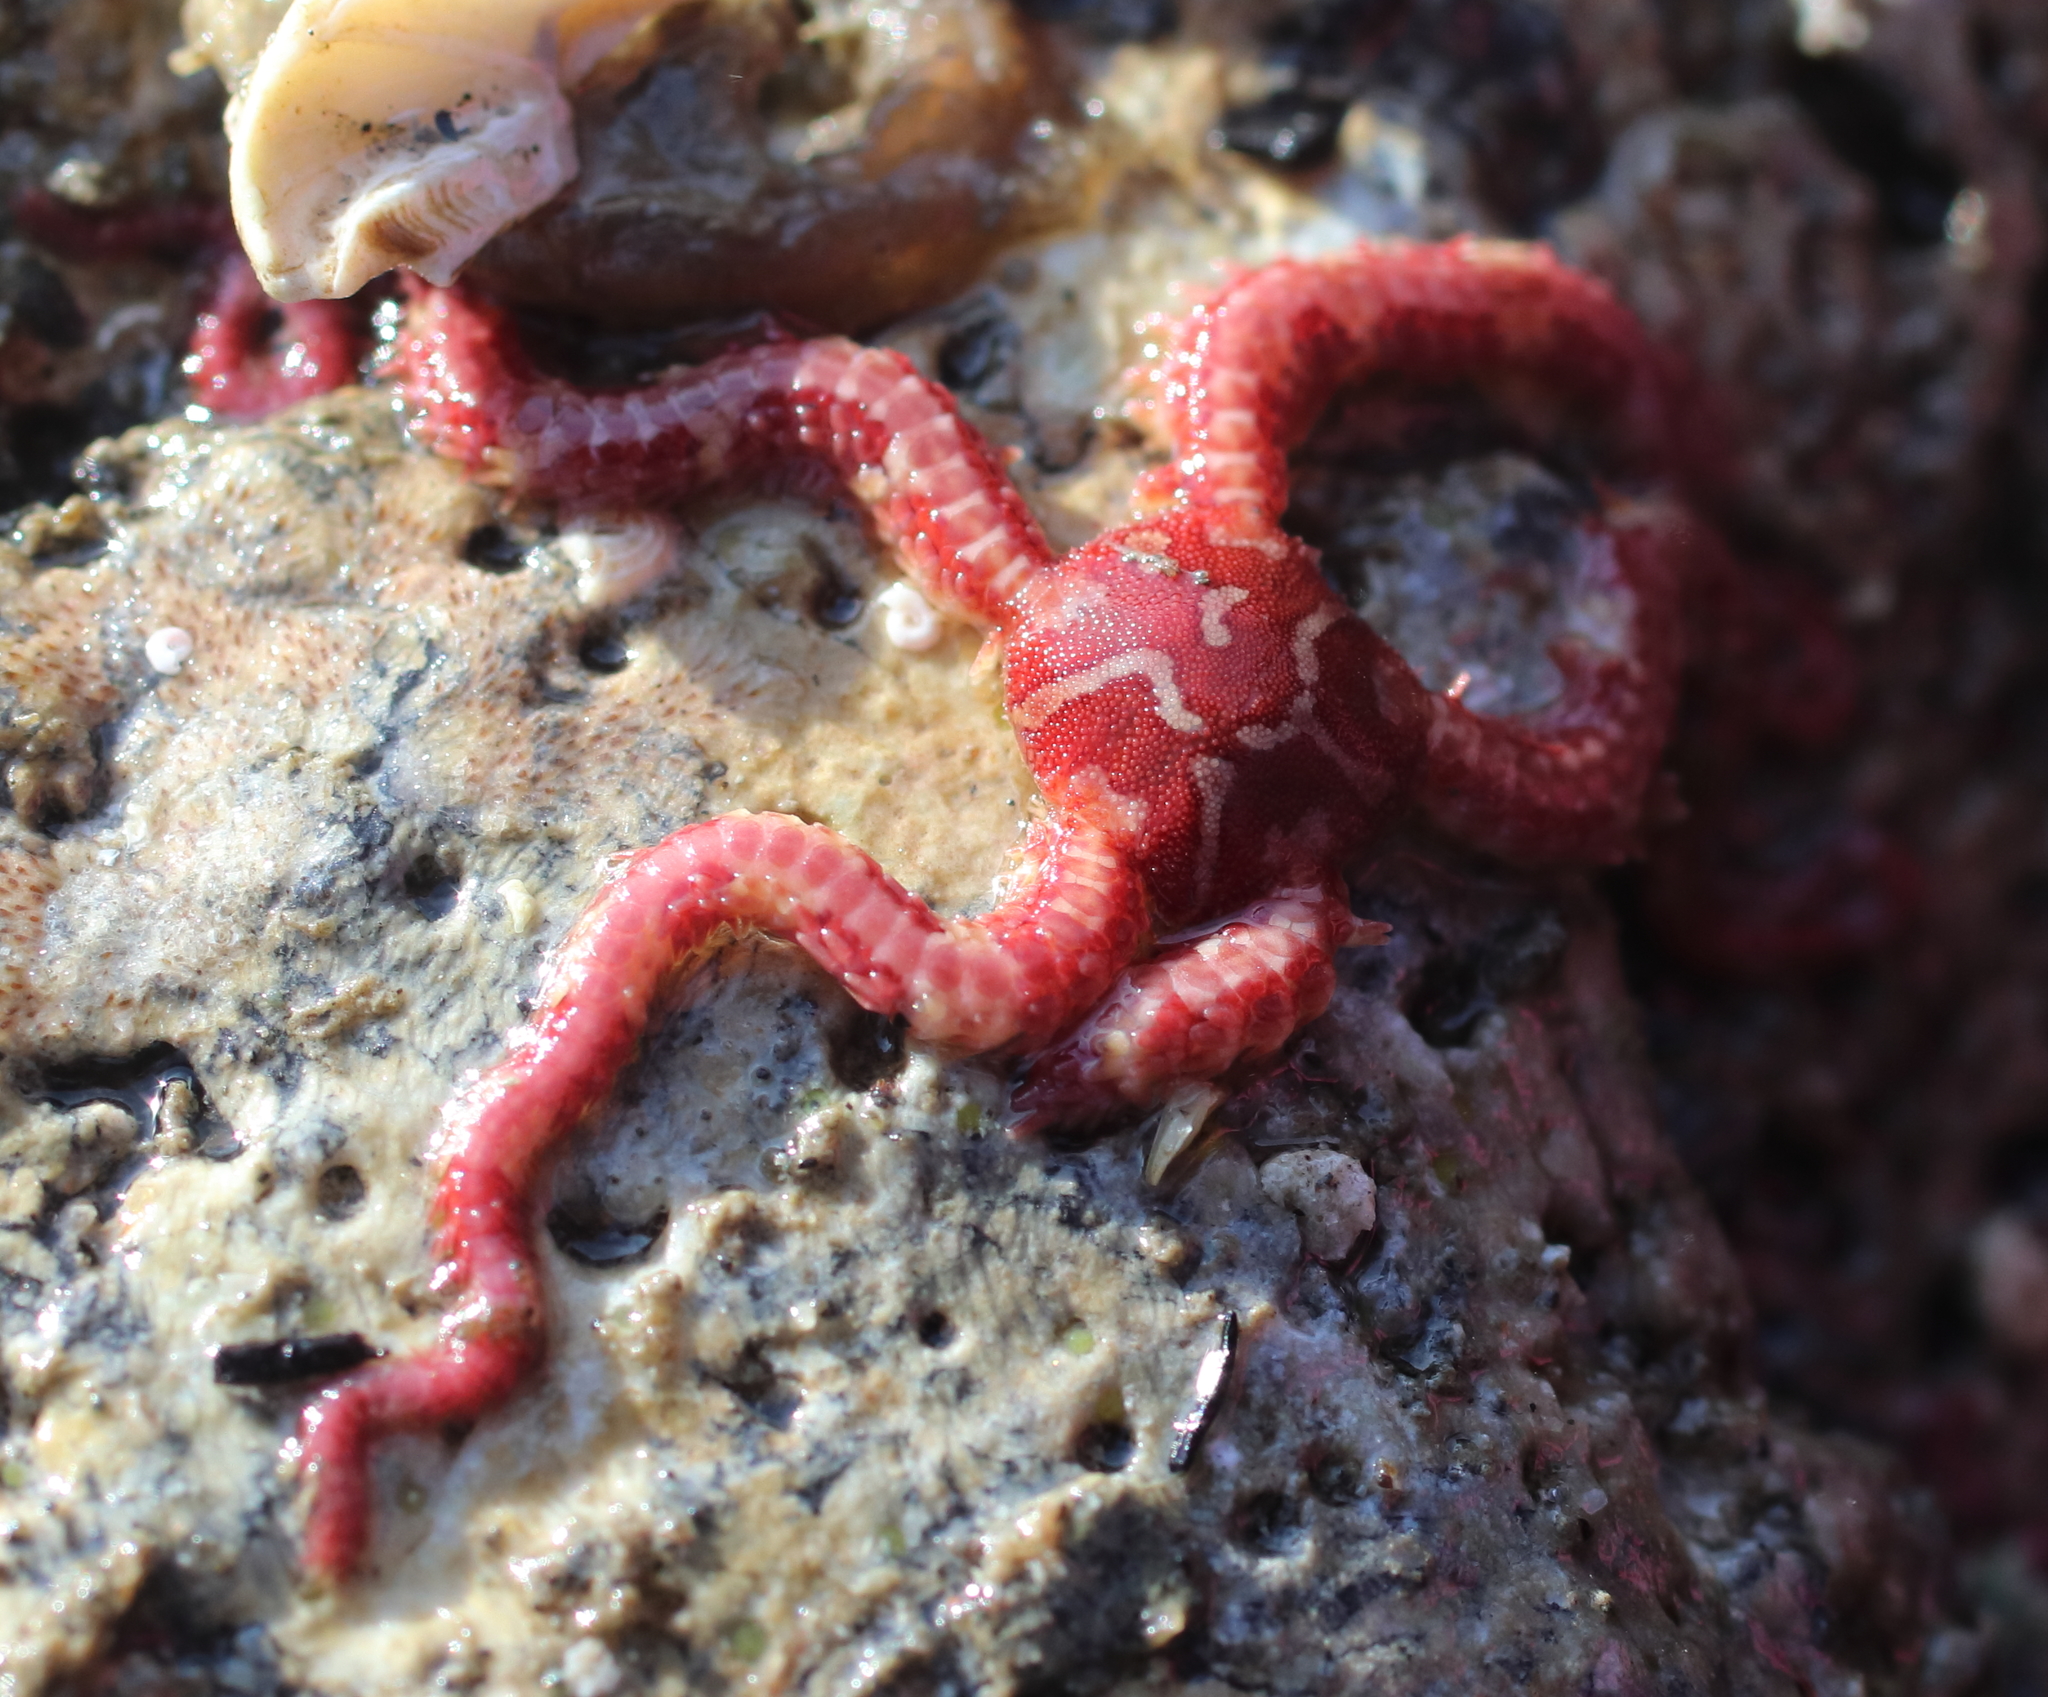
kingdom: Animalia
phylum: Echinodermata
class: Ophiuroidea
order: Amphilepidida
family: Ophiopholidae
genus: Ophiopholis
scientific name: Ophiopholis kennerlyi
